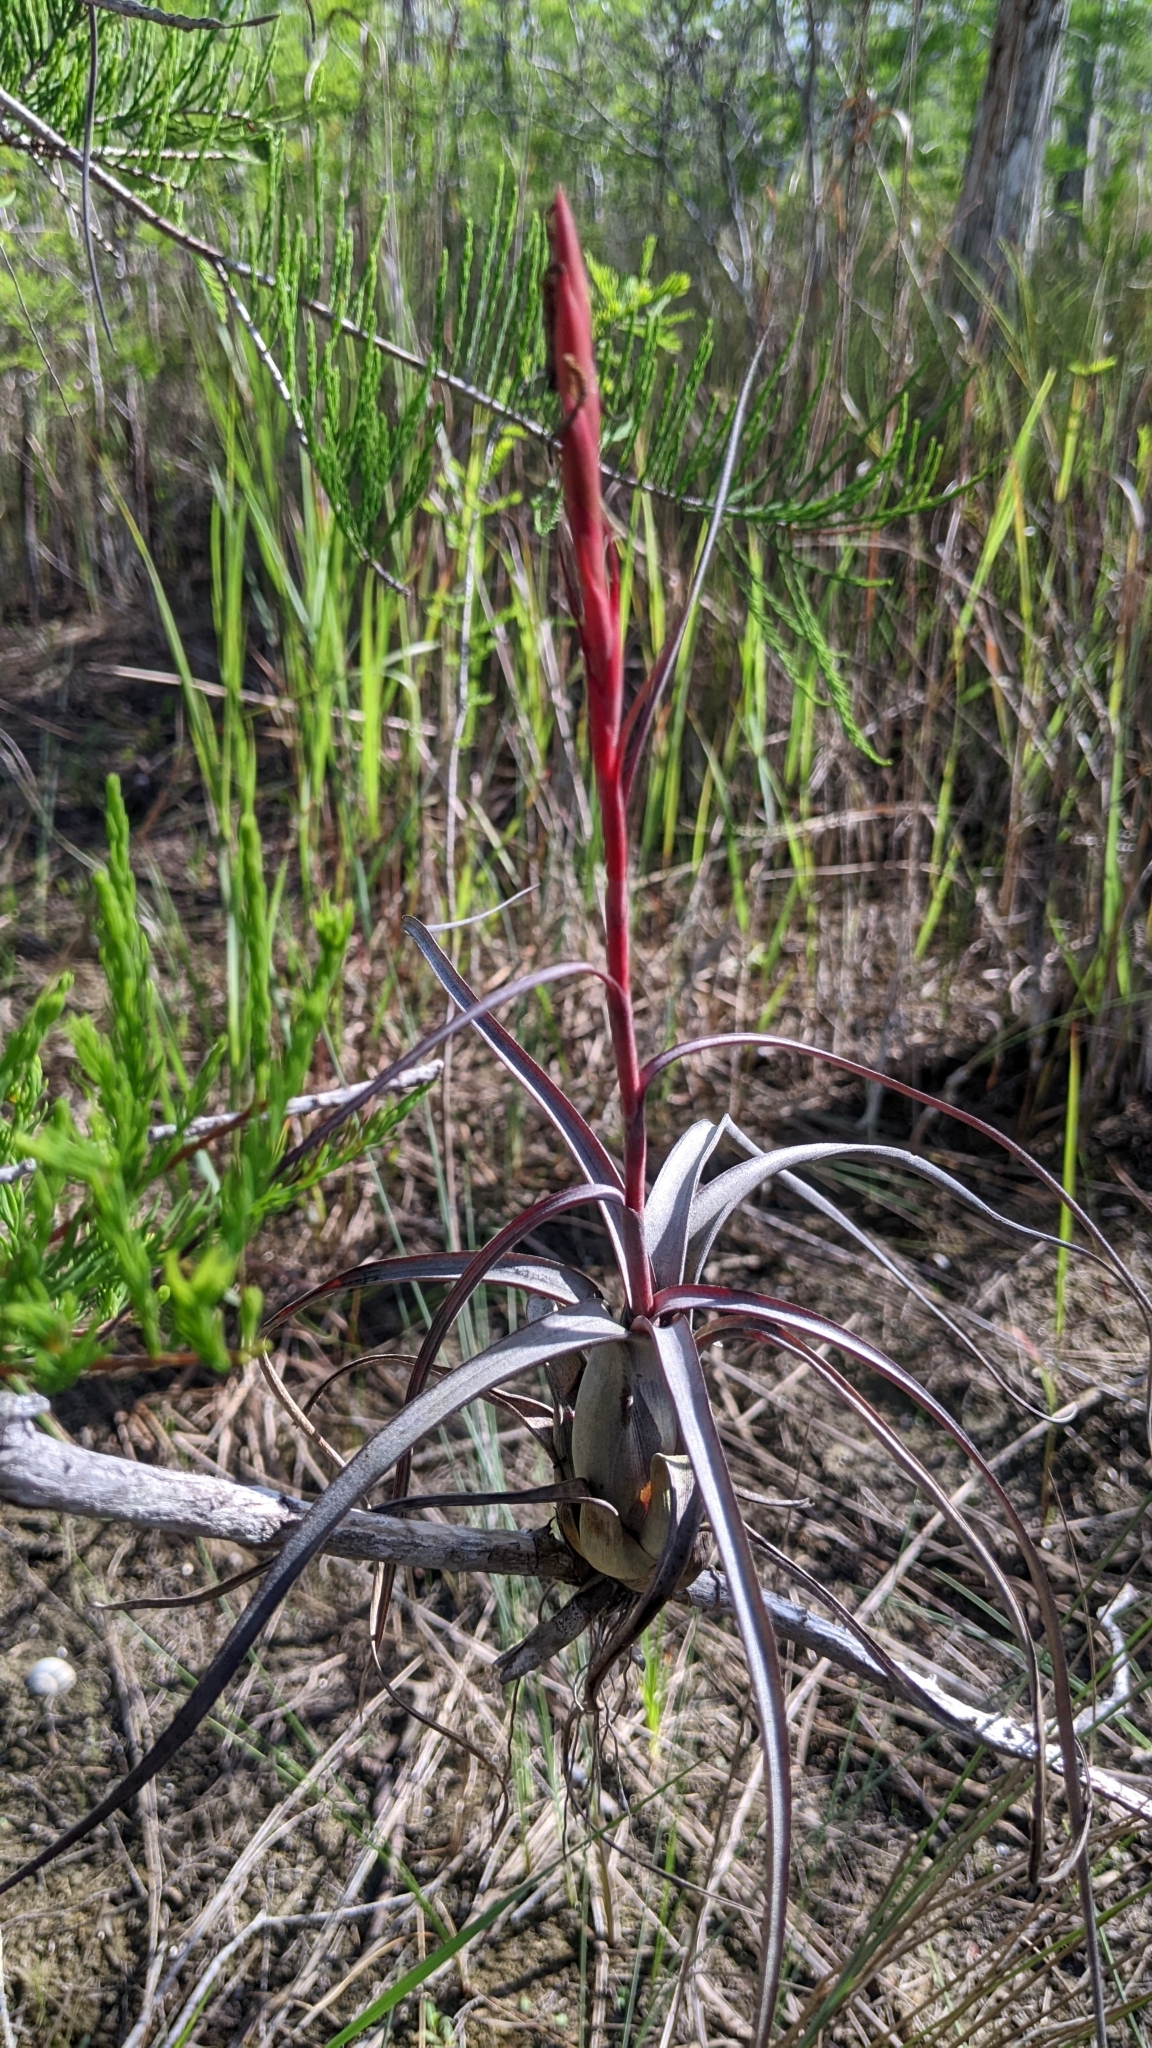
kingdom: Plantae
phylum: Tracheophyta
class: Liliopsida
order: Poales
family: Bromeliaceae
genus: Tillandsia
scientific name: Tillandsia balbisiana
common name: Northern needleleaf
